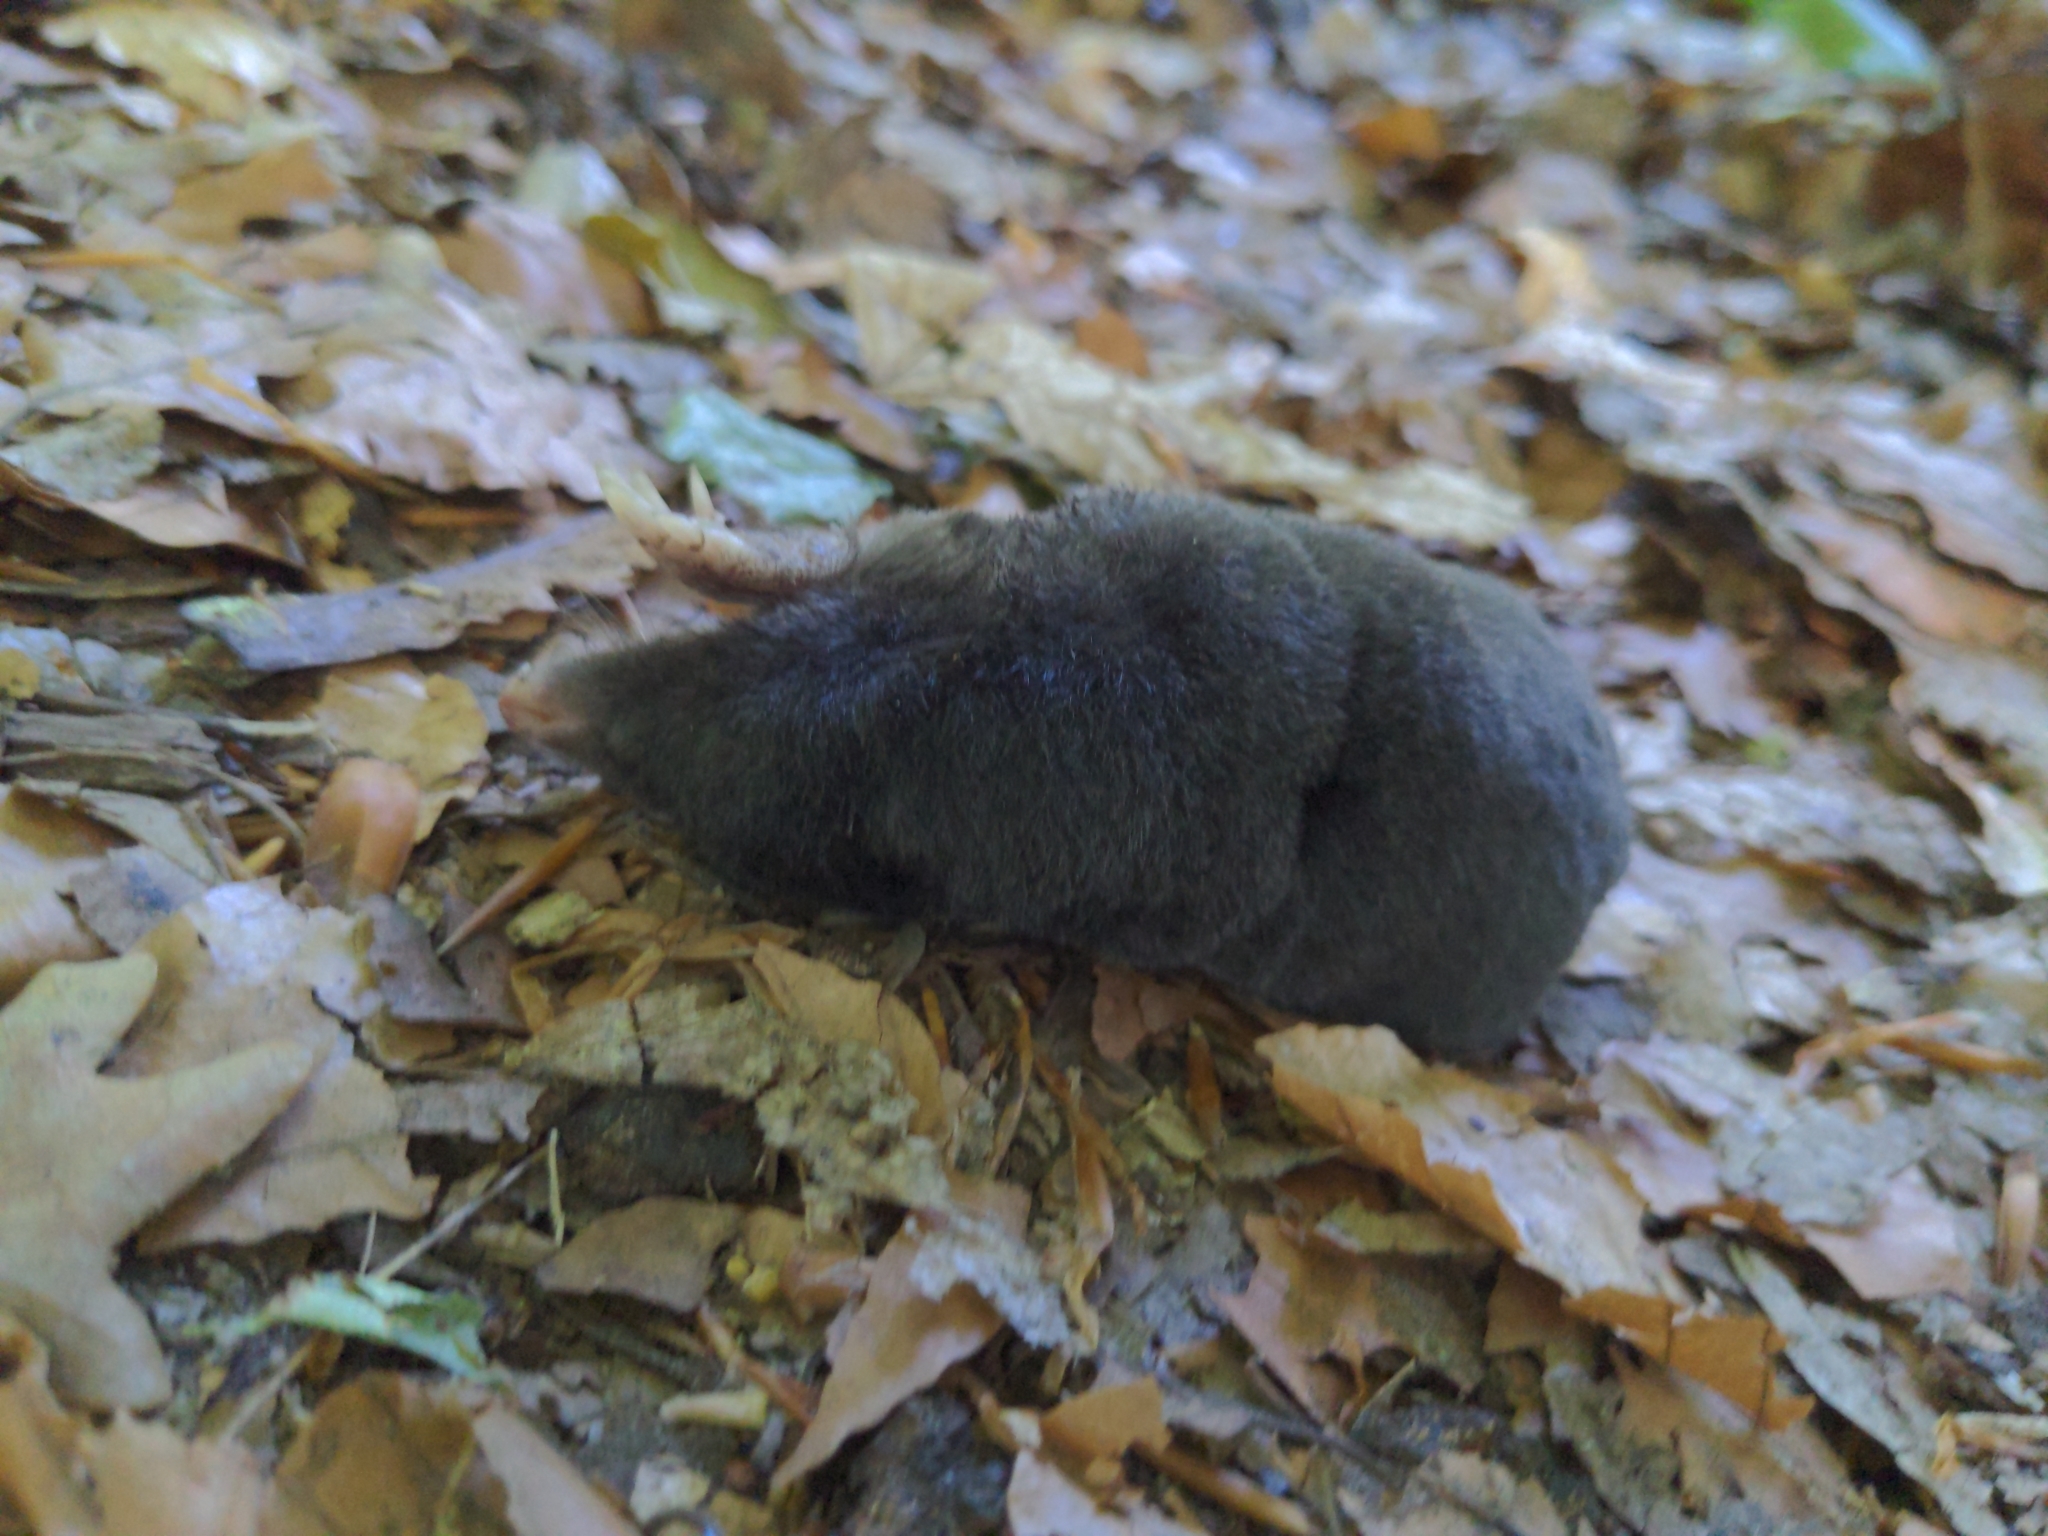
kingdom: Animalia
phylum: Chordata
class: Mammalia
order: Soricomorpha
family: Talpidae
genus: Talpa
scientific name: Talpa europaea
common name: European mole
